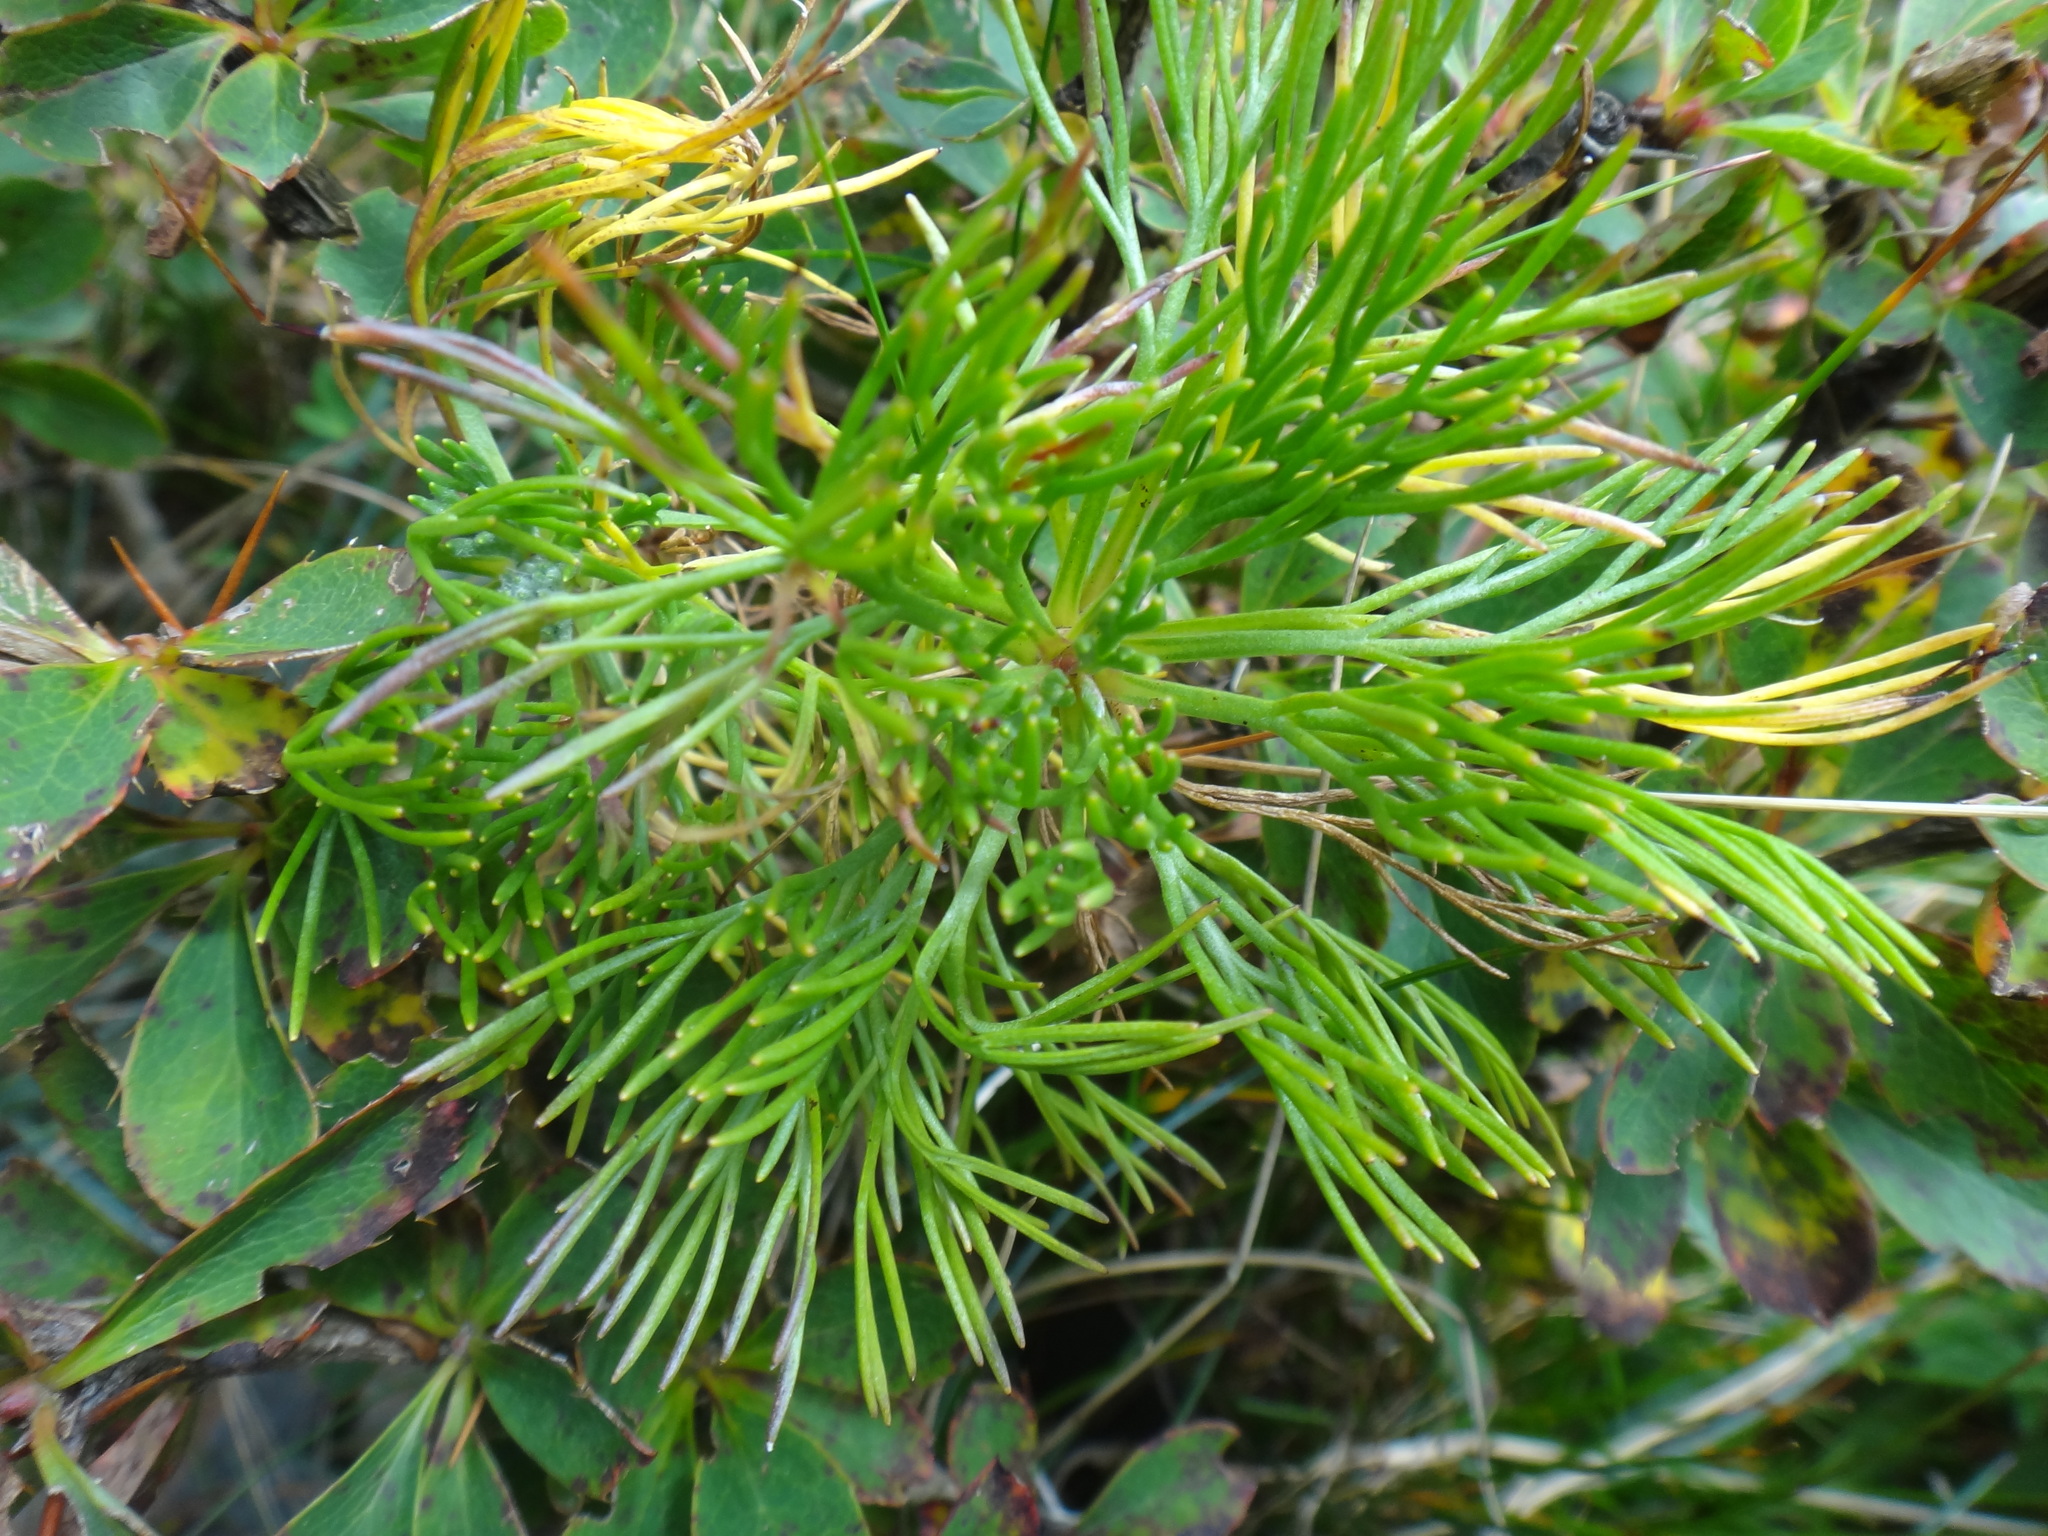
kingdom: Plantae
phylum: Tracheophyta
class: Magnoliopsida
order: Asterales
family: Asteraceae
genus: Artemisia
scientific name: Artemisia morrisonensis
